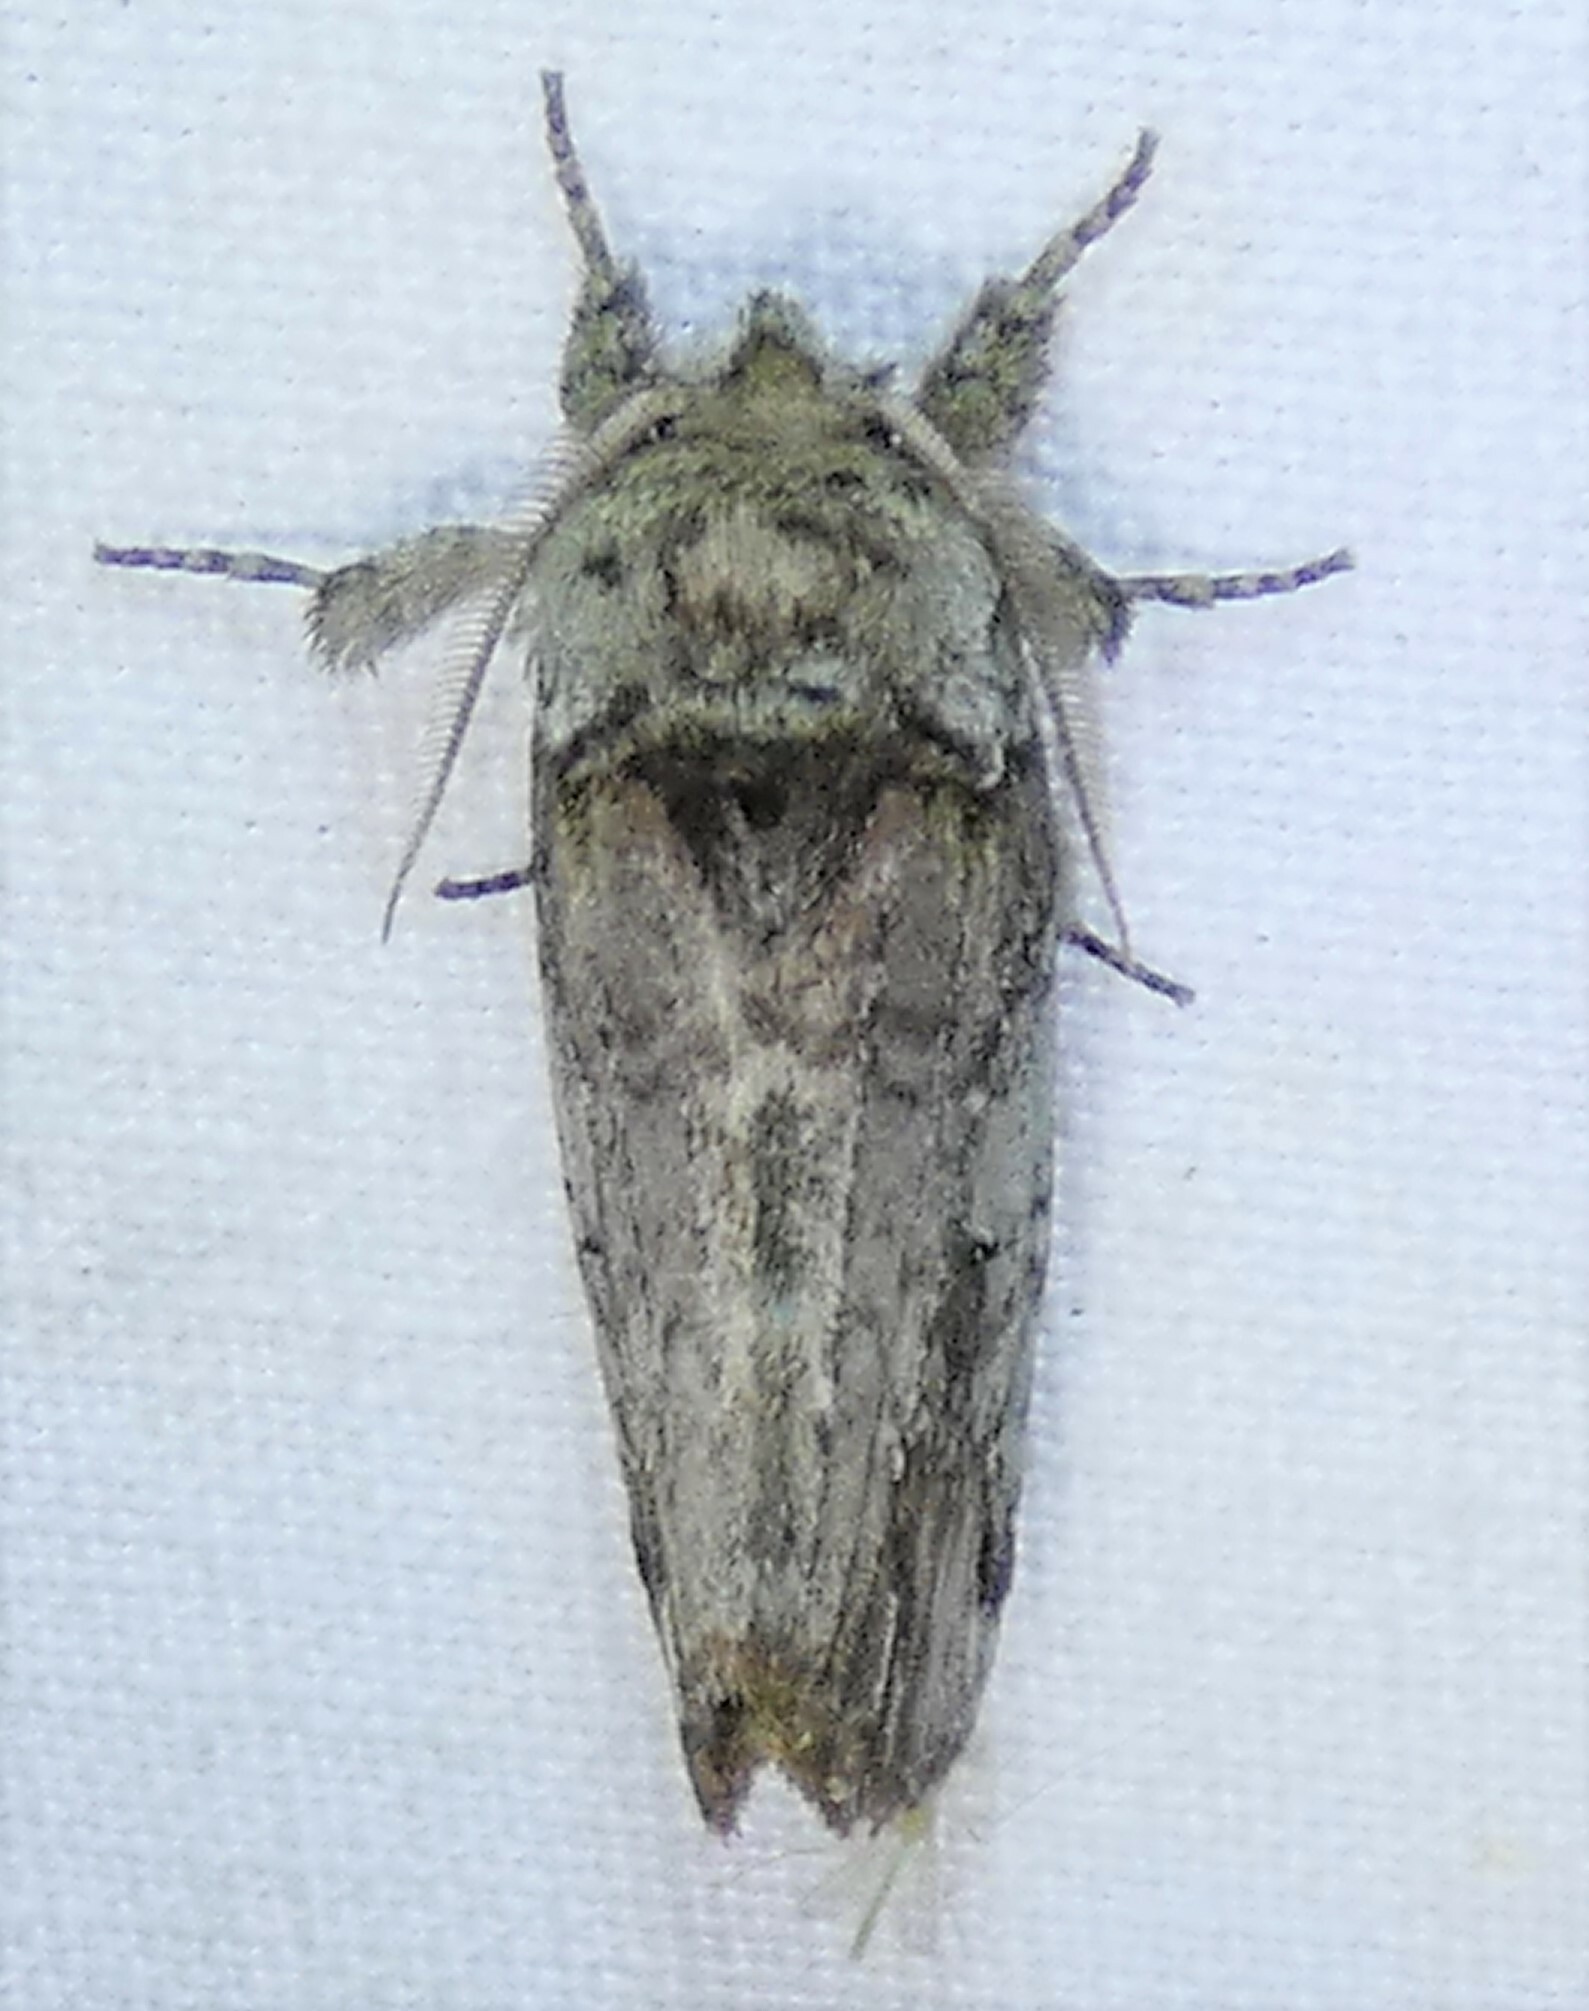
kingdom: Animalia
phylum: Arthropoda
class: Insecta
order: Lepidoptera
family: Notodontidae
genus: Schizura
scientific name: Schizura
